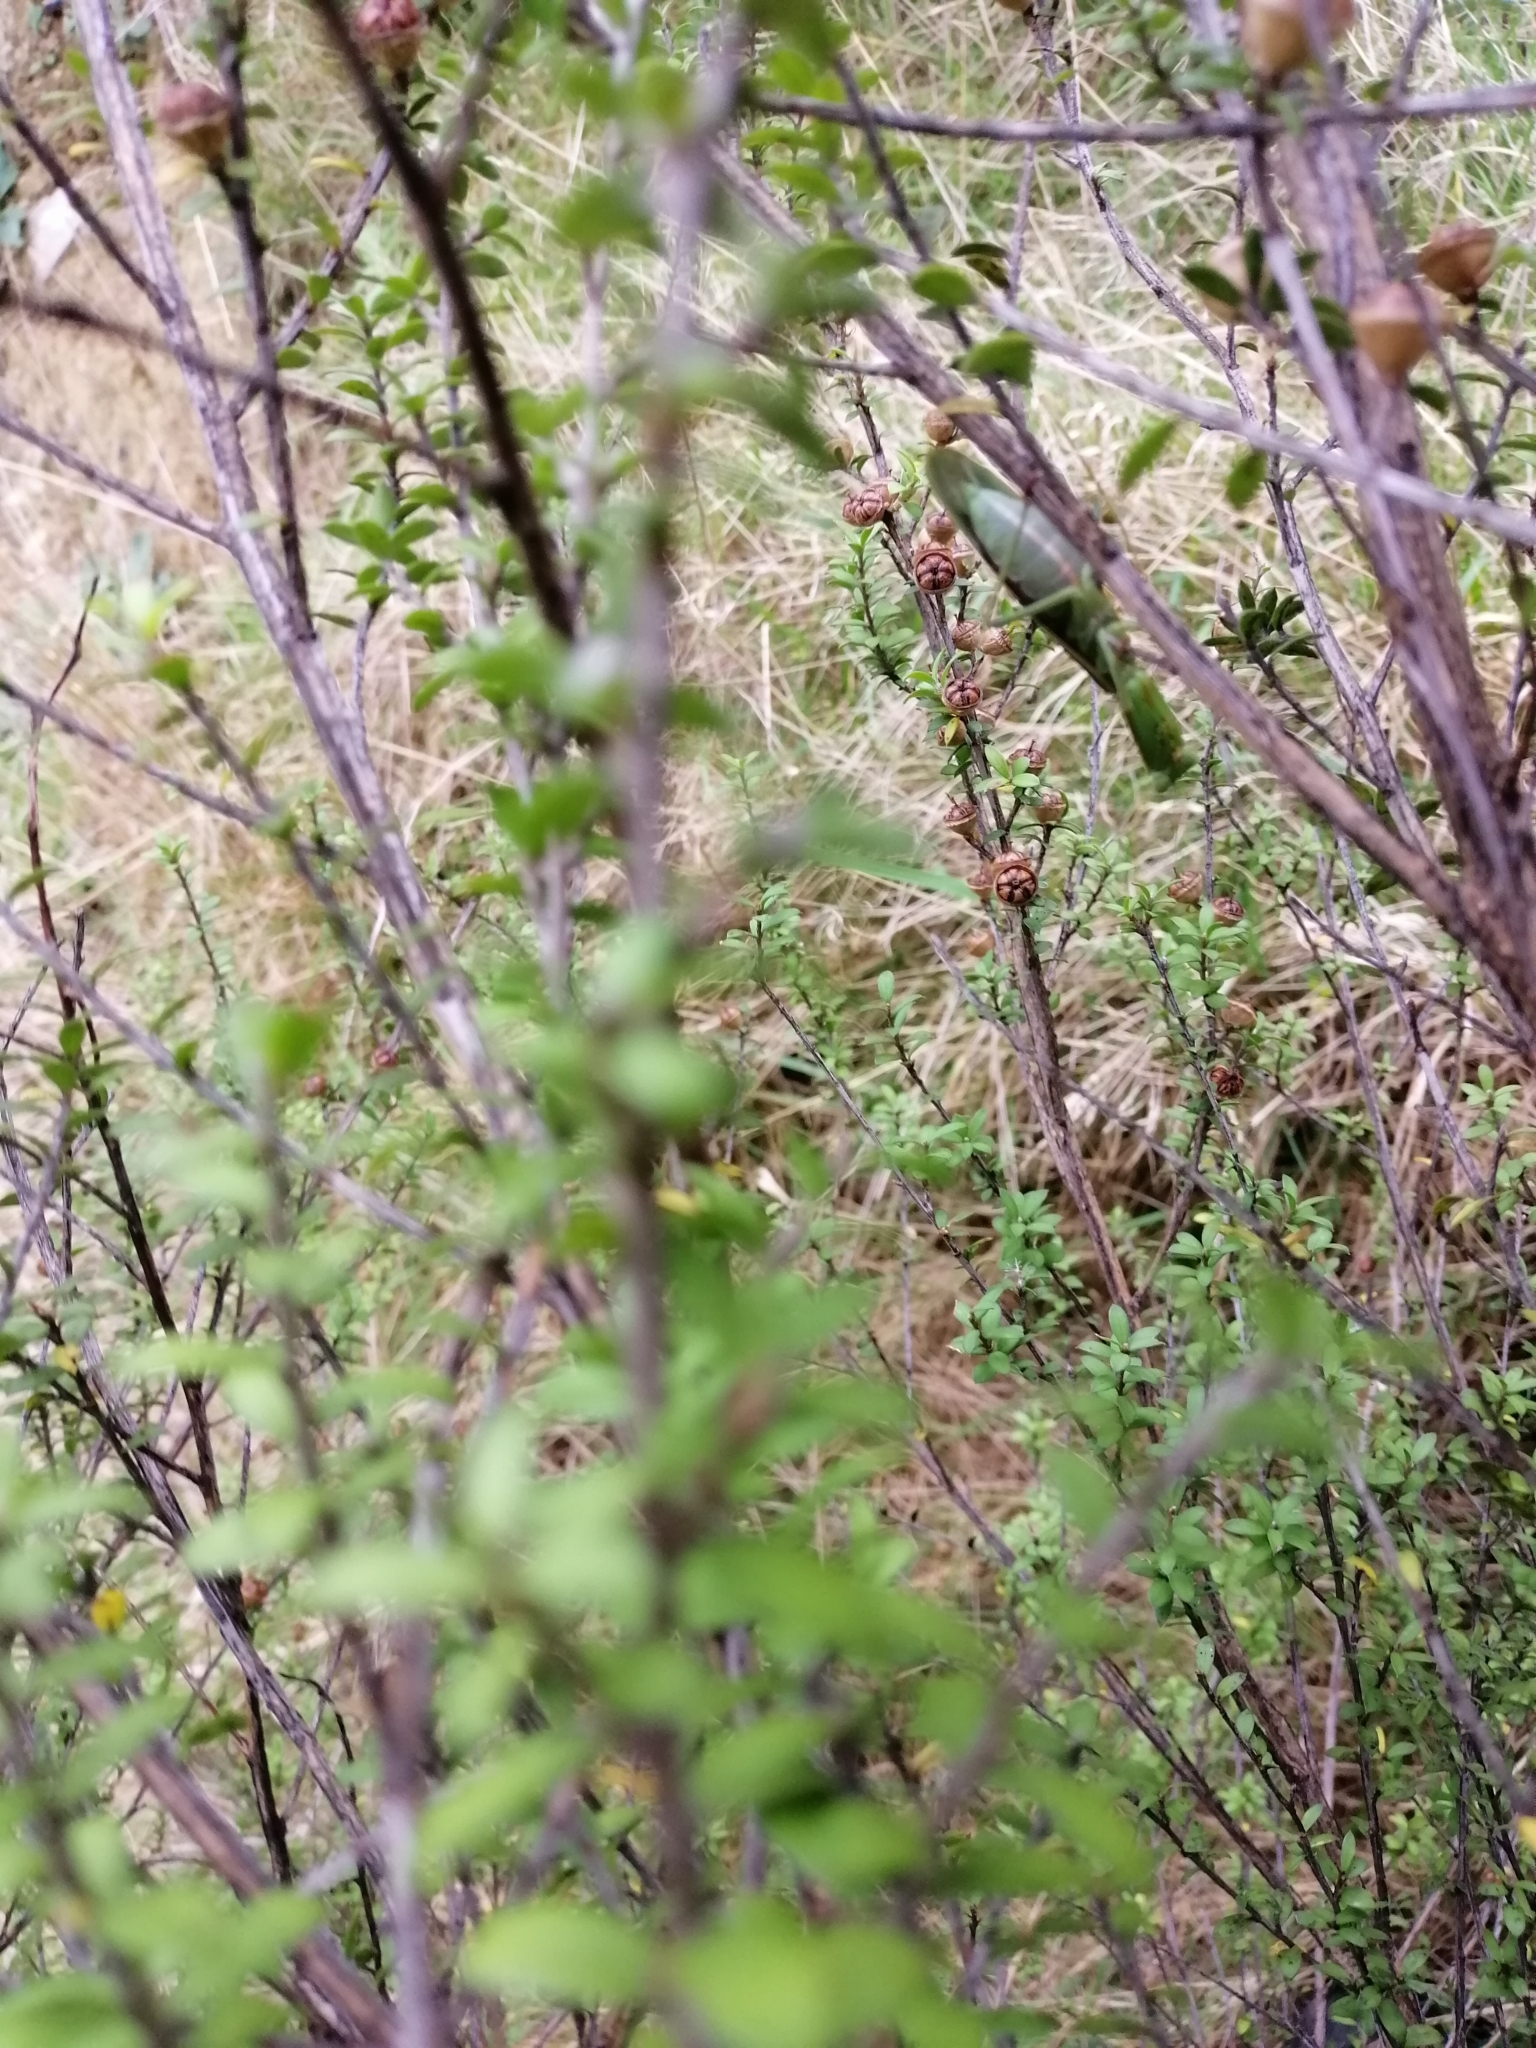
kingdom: Animalia
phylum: Arthropoda
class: Insecta
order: Mantodea
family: Mantidae
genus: Orthodera
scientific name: Orthodera novaezealandiae
